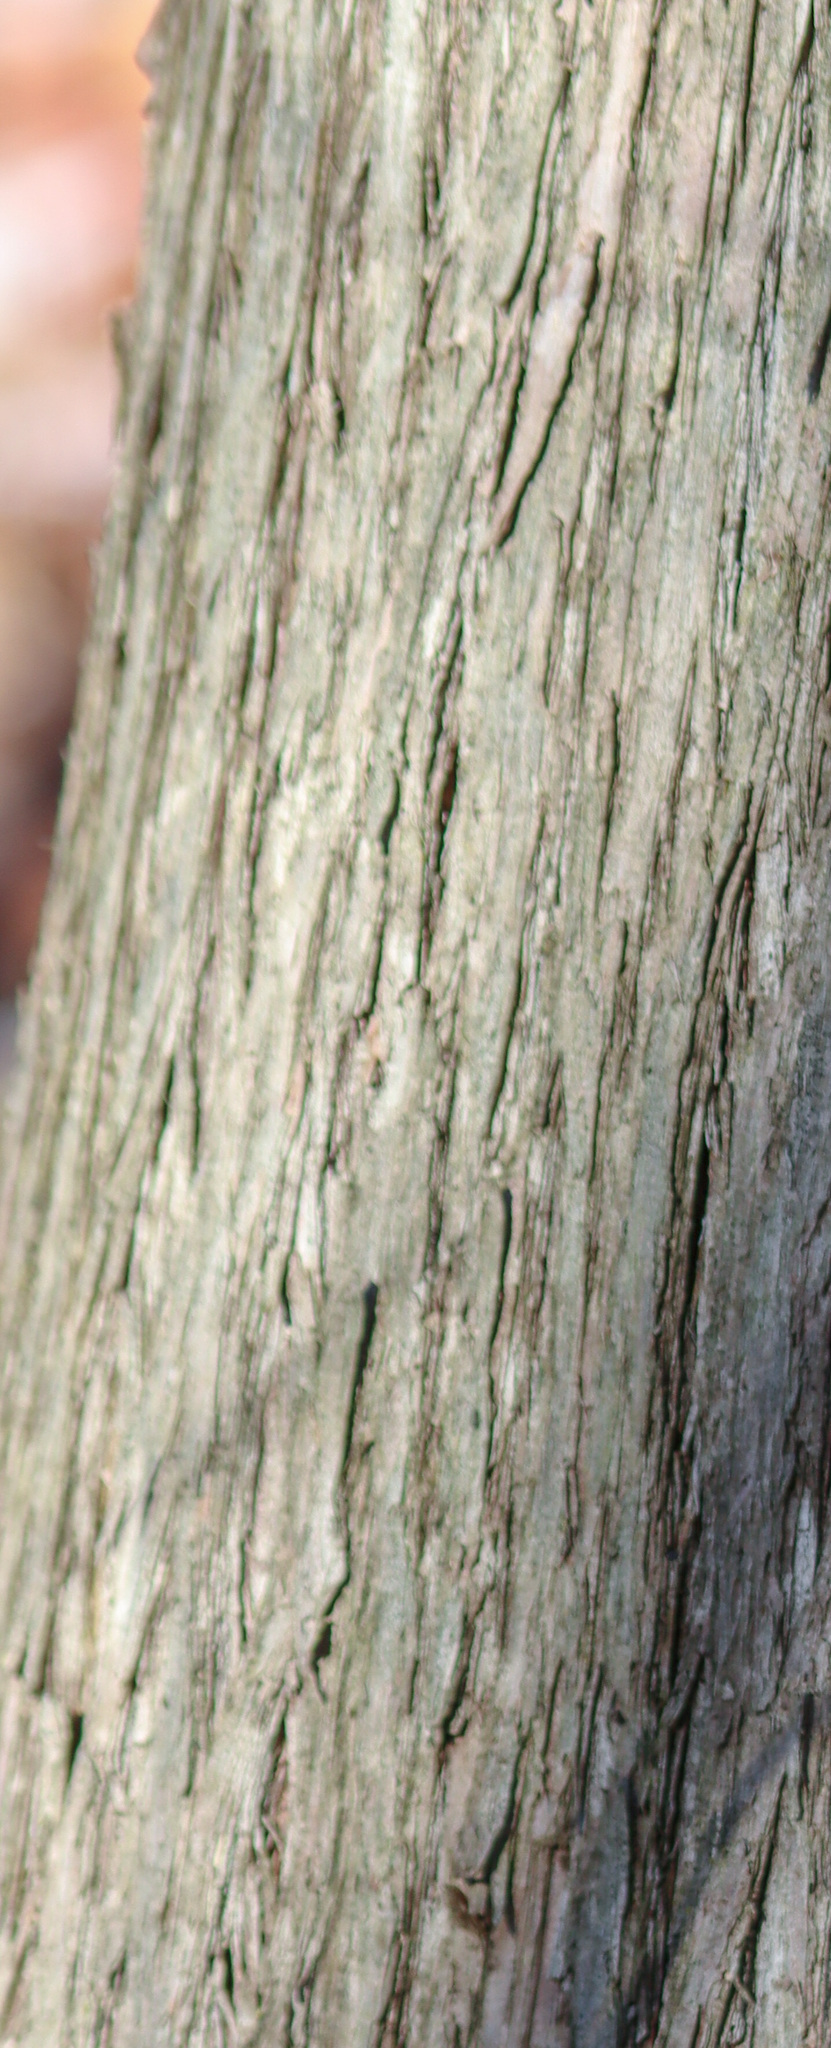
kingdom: Plantae
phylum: Tracheophyta
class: Pinopsida
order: Pinales
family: Cupressaceae
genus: Thuja
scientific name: Thuja occidentalis
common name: Northern white-cedar
